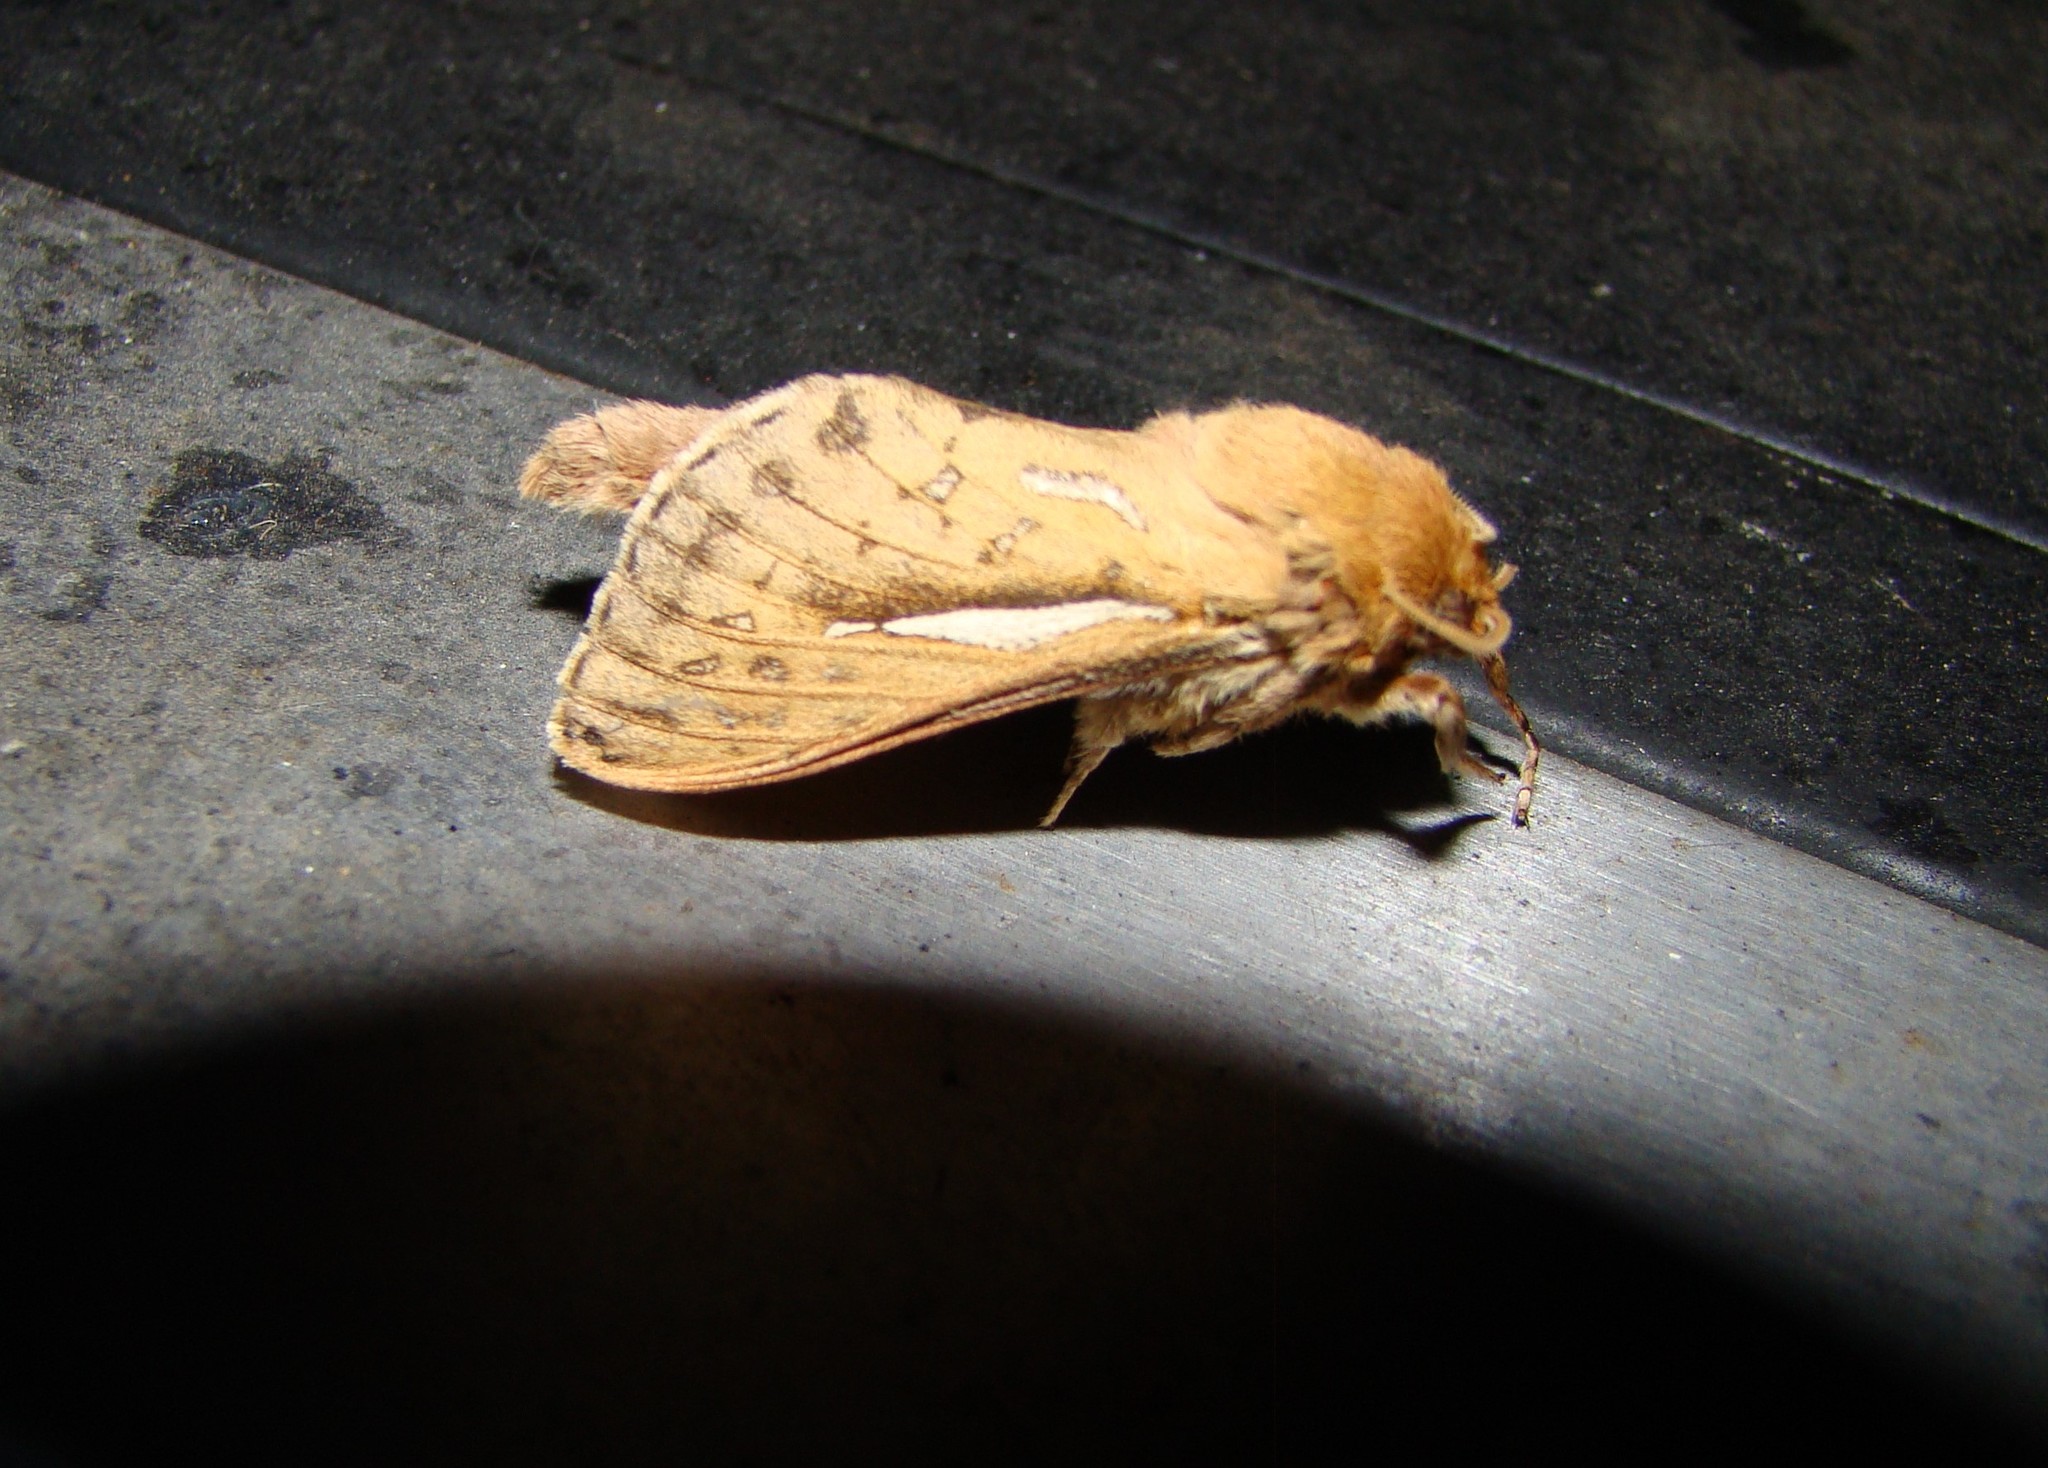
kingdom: Animalia
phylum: Arthropoda
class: Insecta
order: Lepidoptera
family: Hepialidae
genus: Wiseana
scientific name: Wiseana umbraculatus
